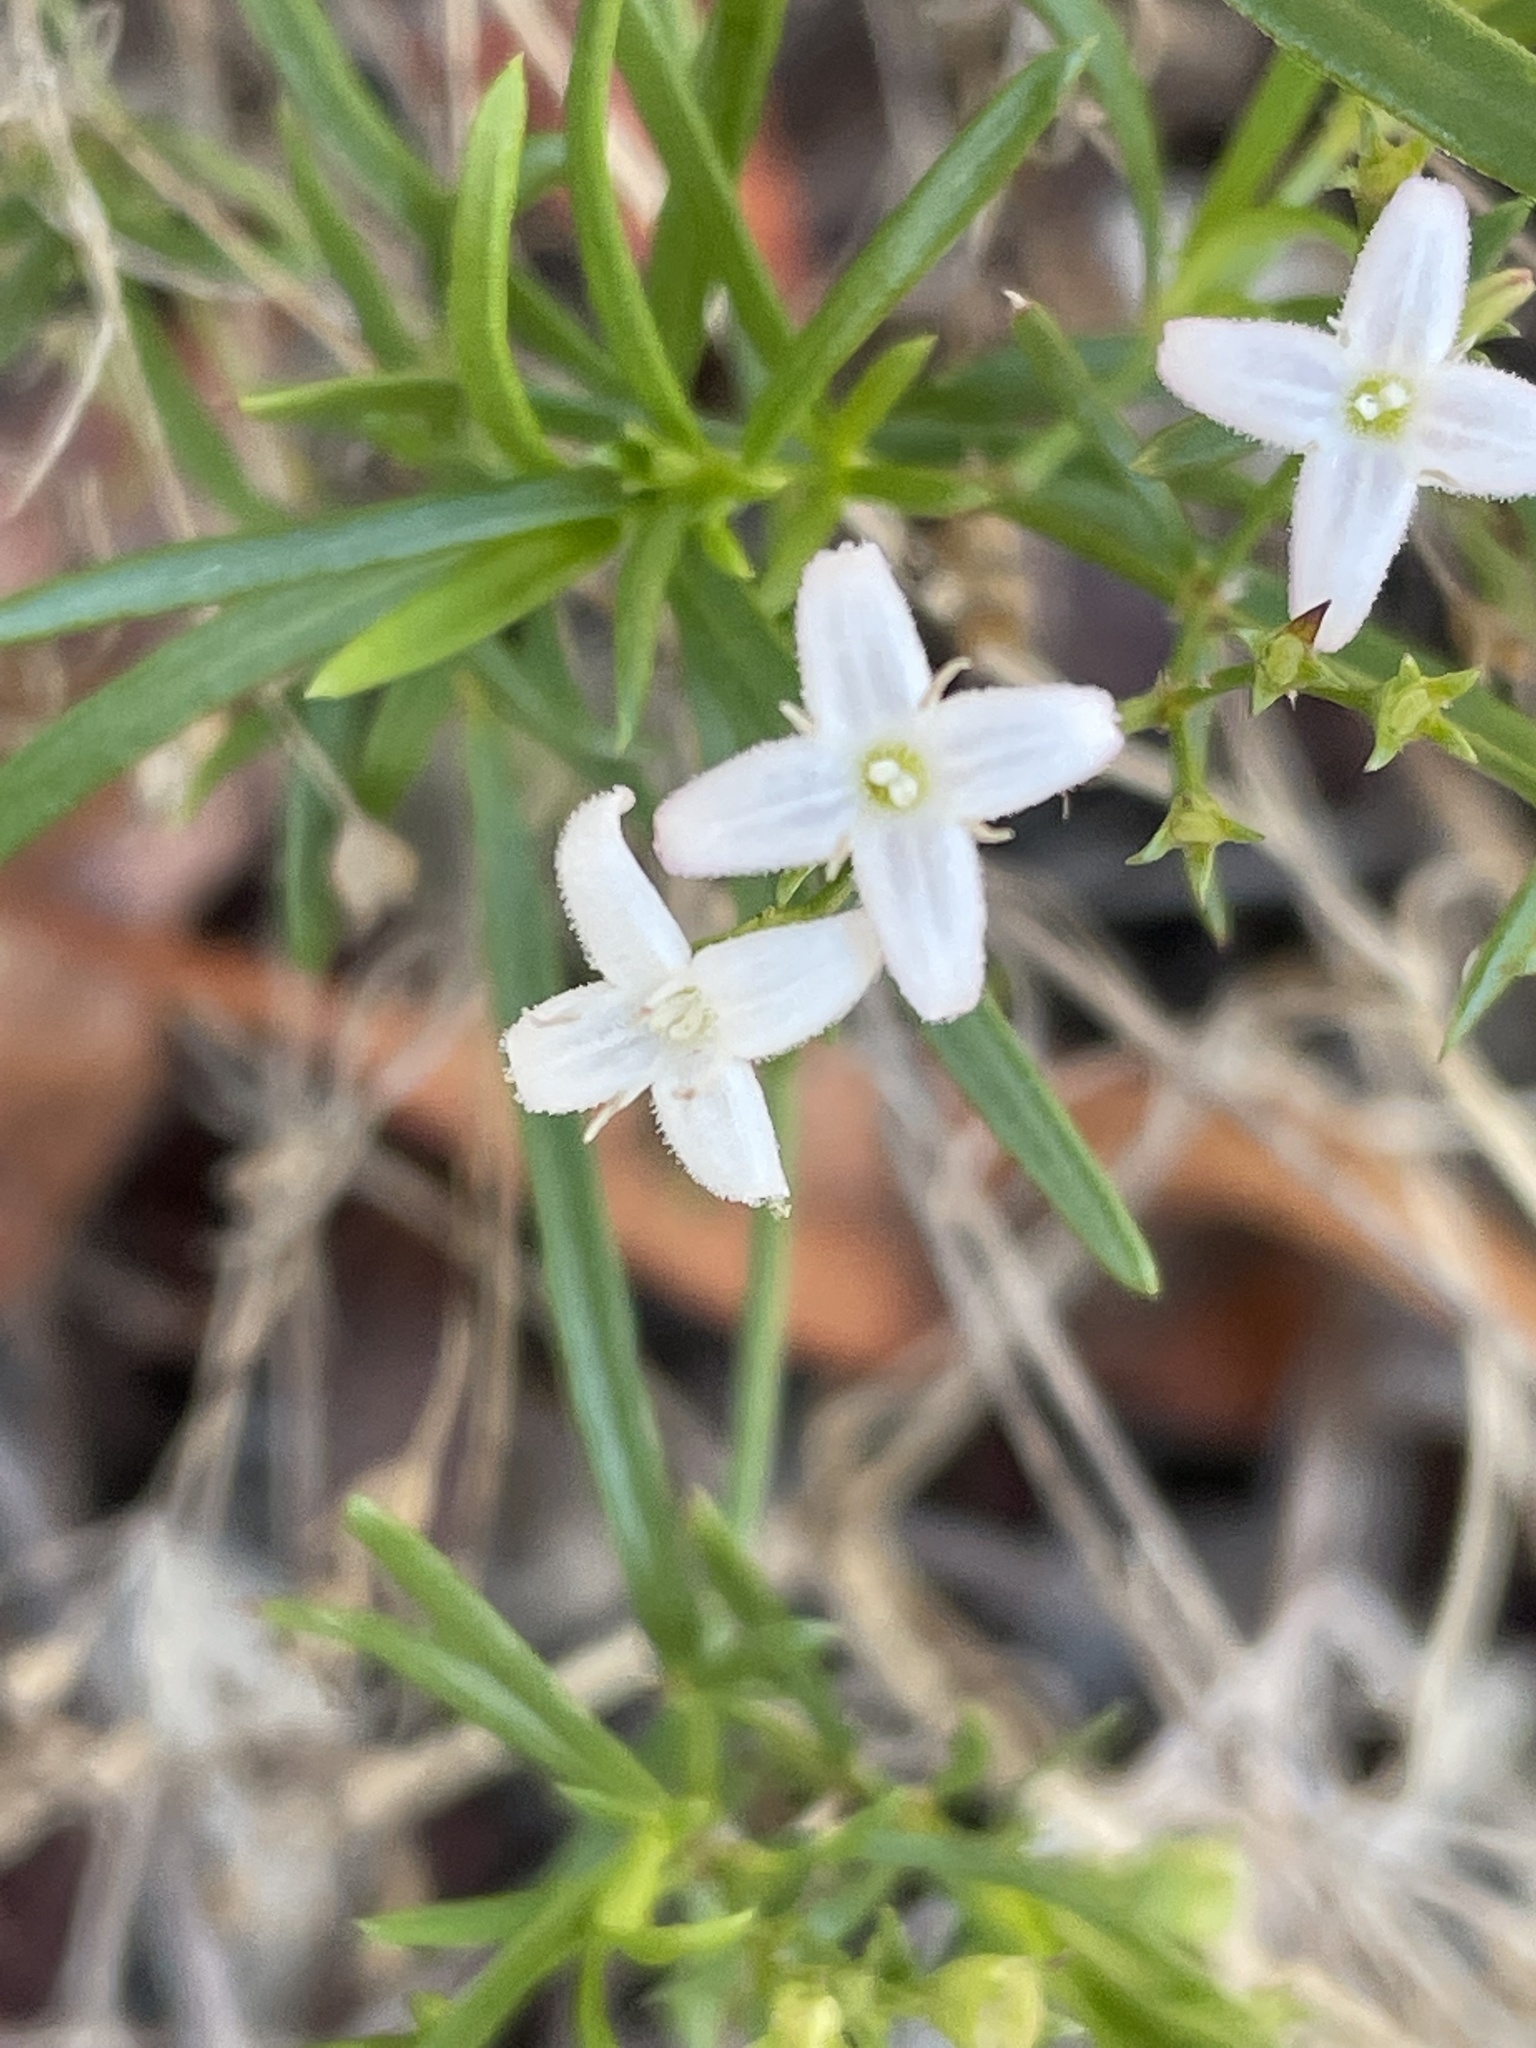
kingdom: Plantae
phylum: Tracheophyta
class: Magnoliopsida
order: Gentianales
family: Rubiaceae
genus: Stenaria
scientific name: Stenaria nigricans
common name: Diamondflowers
